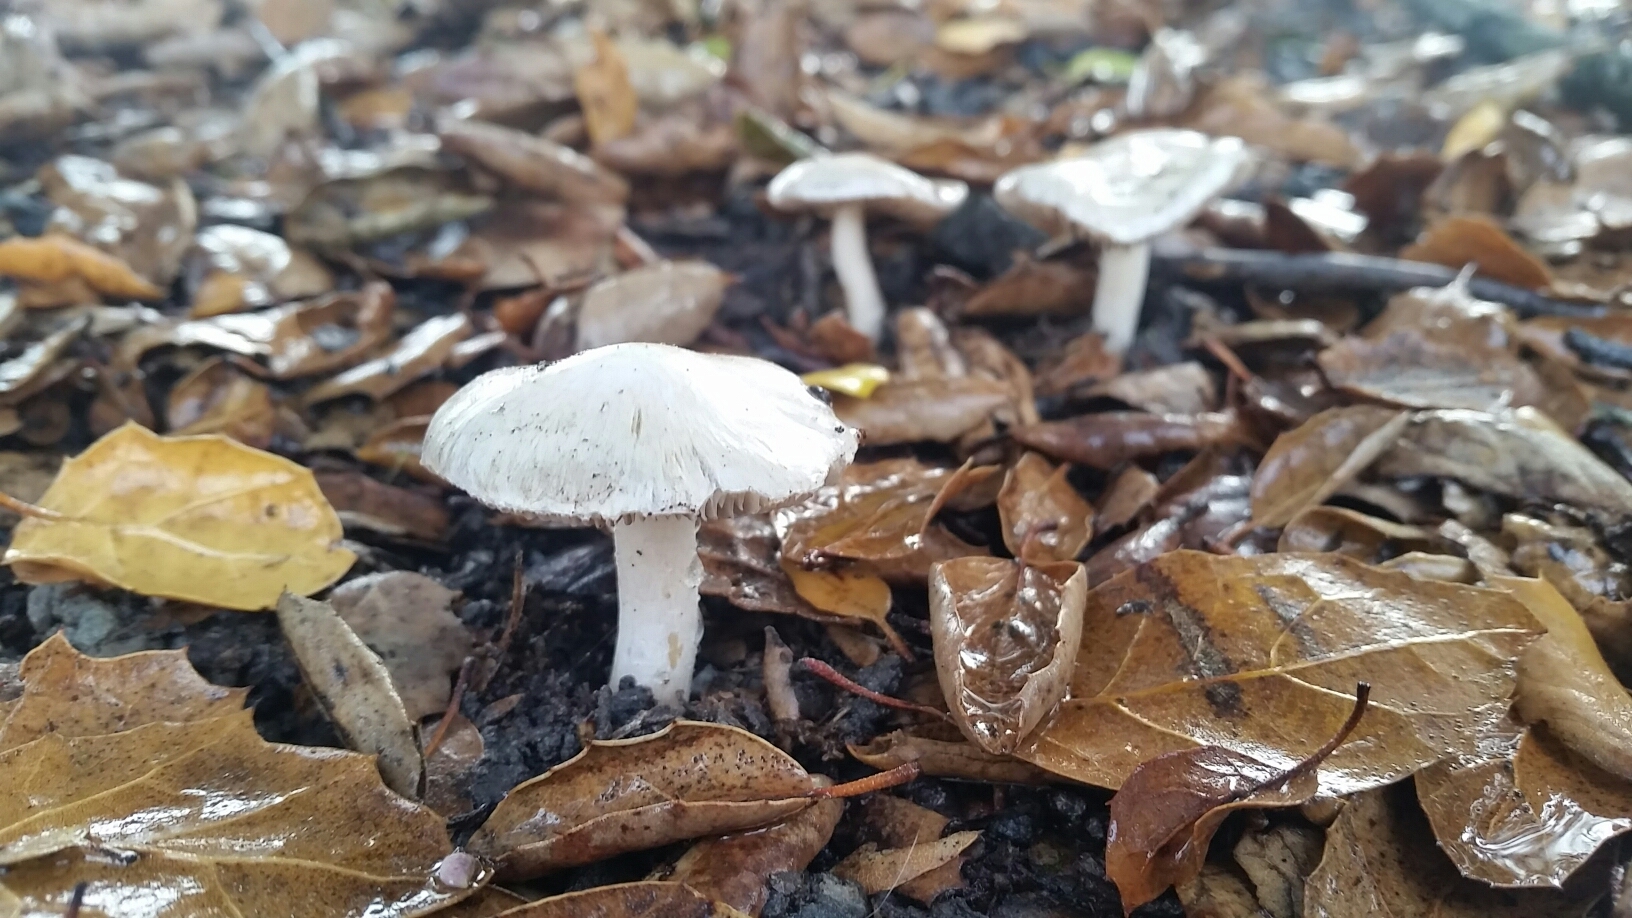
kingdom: Fungi
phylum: Basidiomycota
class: Agaricomycetes
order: Agaricales
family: Inocybaceae
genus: Inocybe
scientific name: Inocybe insinuata
